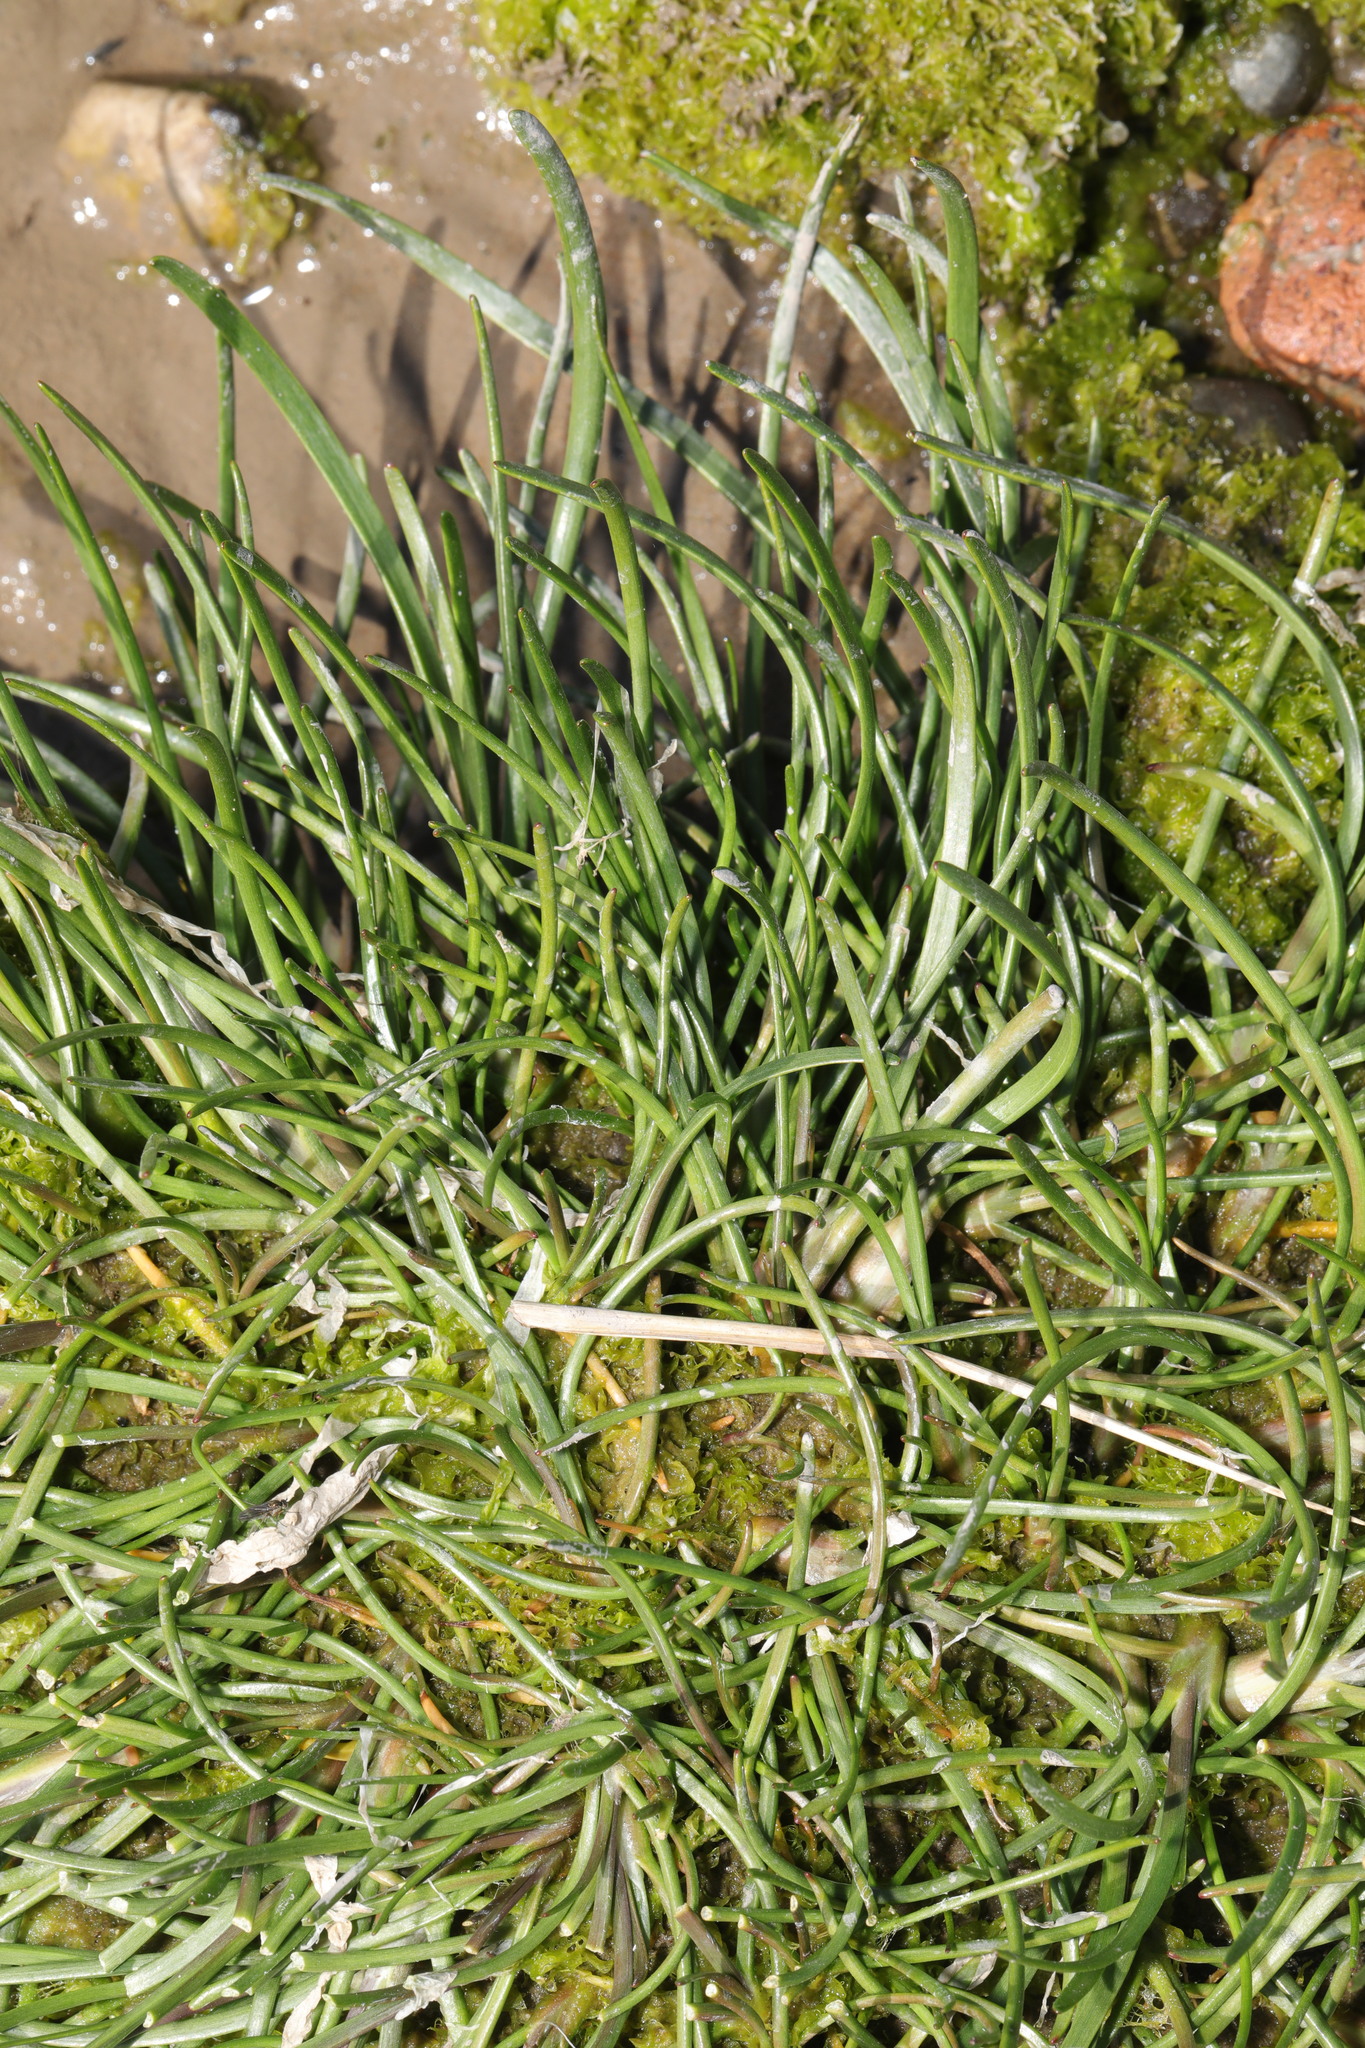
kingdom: Plantae
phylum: Tracheophyta
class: Liliopsida
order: Alismatales
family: Juncaginaceae
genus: Triglochin
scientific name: Triglochin maritima
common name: Sea arrowgrass
